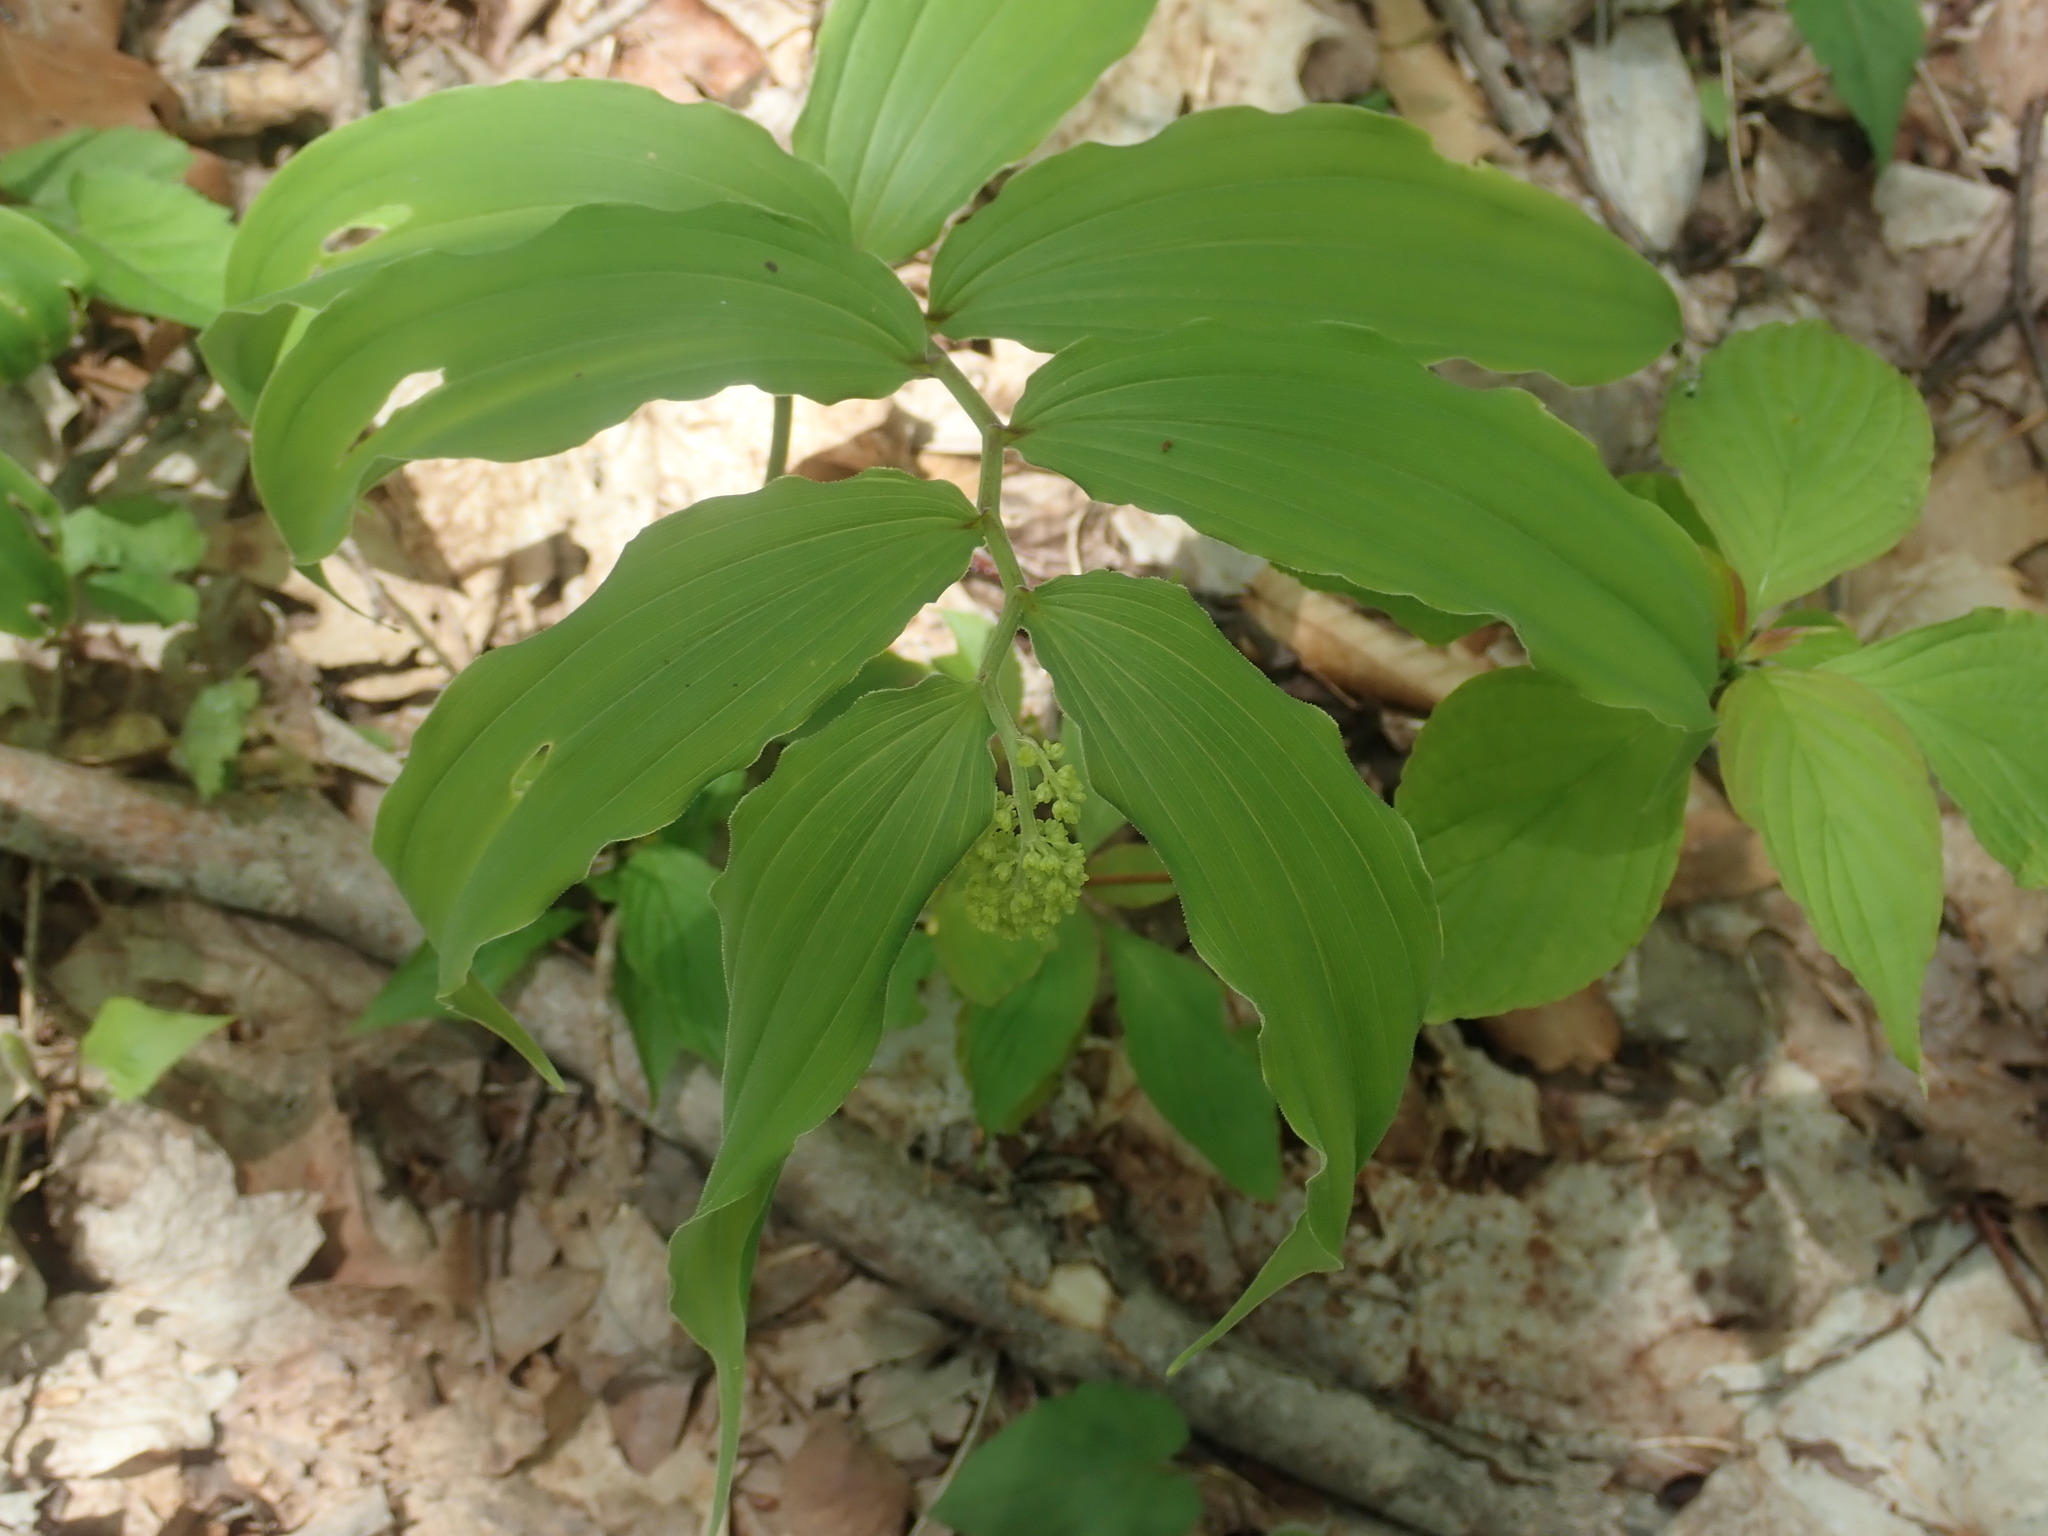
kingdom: Plantae
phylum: Tracheophyta
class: Liliopsida
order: Asparagales
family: Asparagaceae
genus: Maianthemum
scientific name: Maianthemum racemosum
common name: False spikenard
